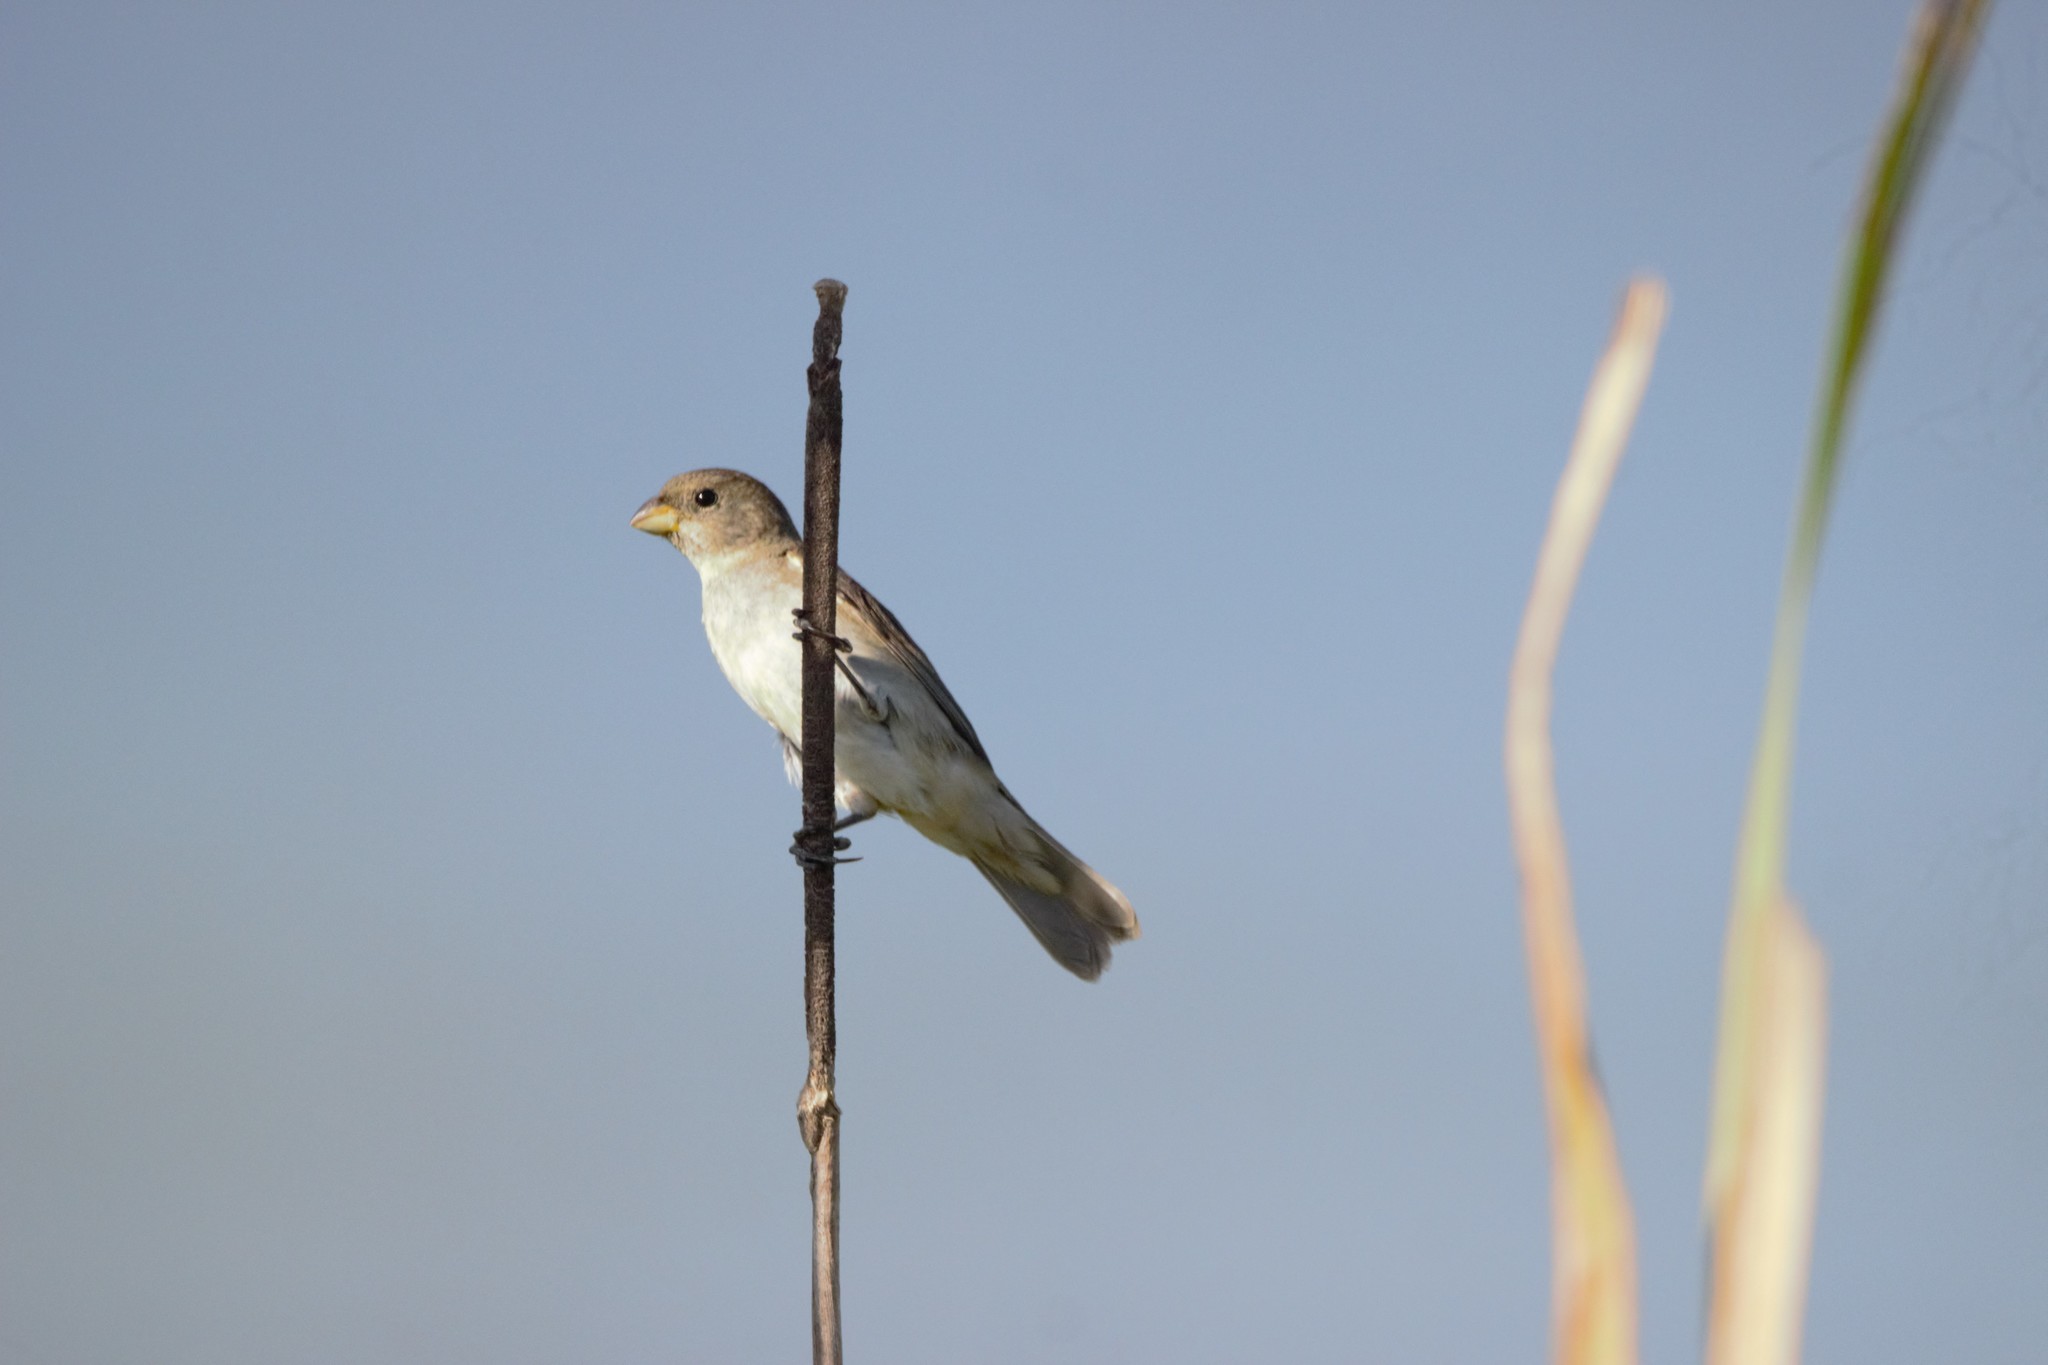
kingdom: Animalia
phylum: Chordata
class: Aves
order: Passeriformes
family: Thraupidae
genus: Sporophila
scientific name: Sporophila caerulescens
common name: Double-collared seedeater
